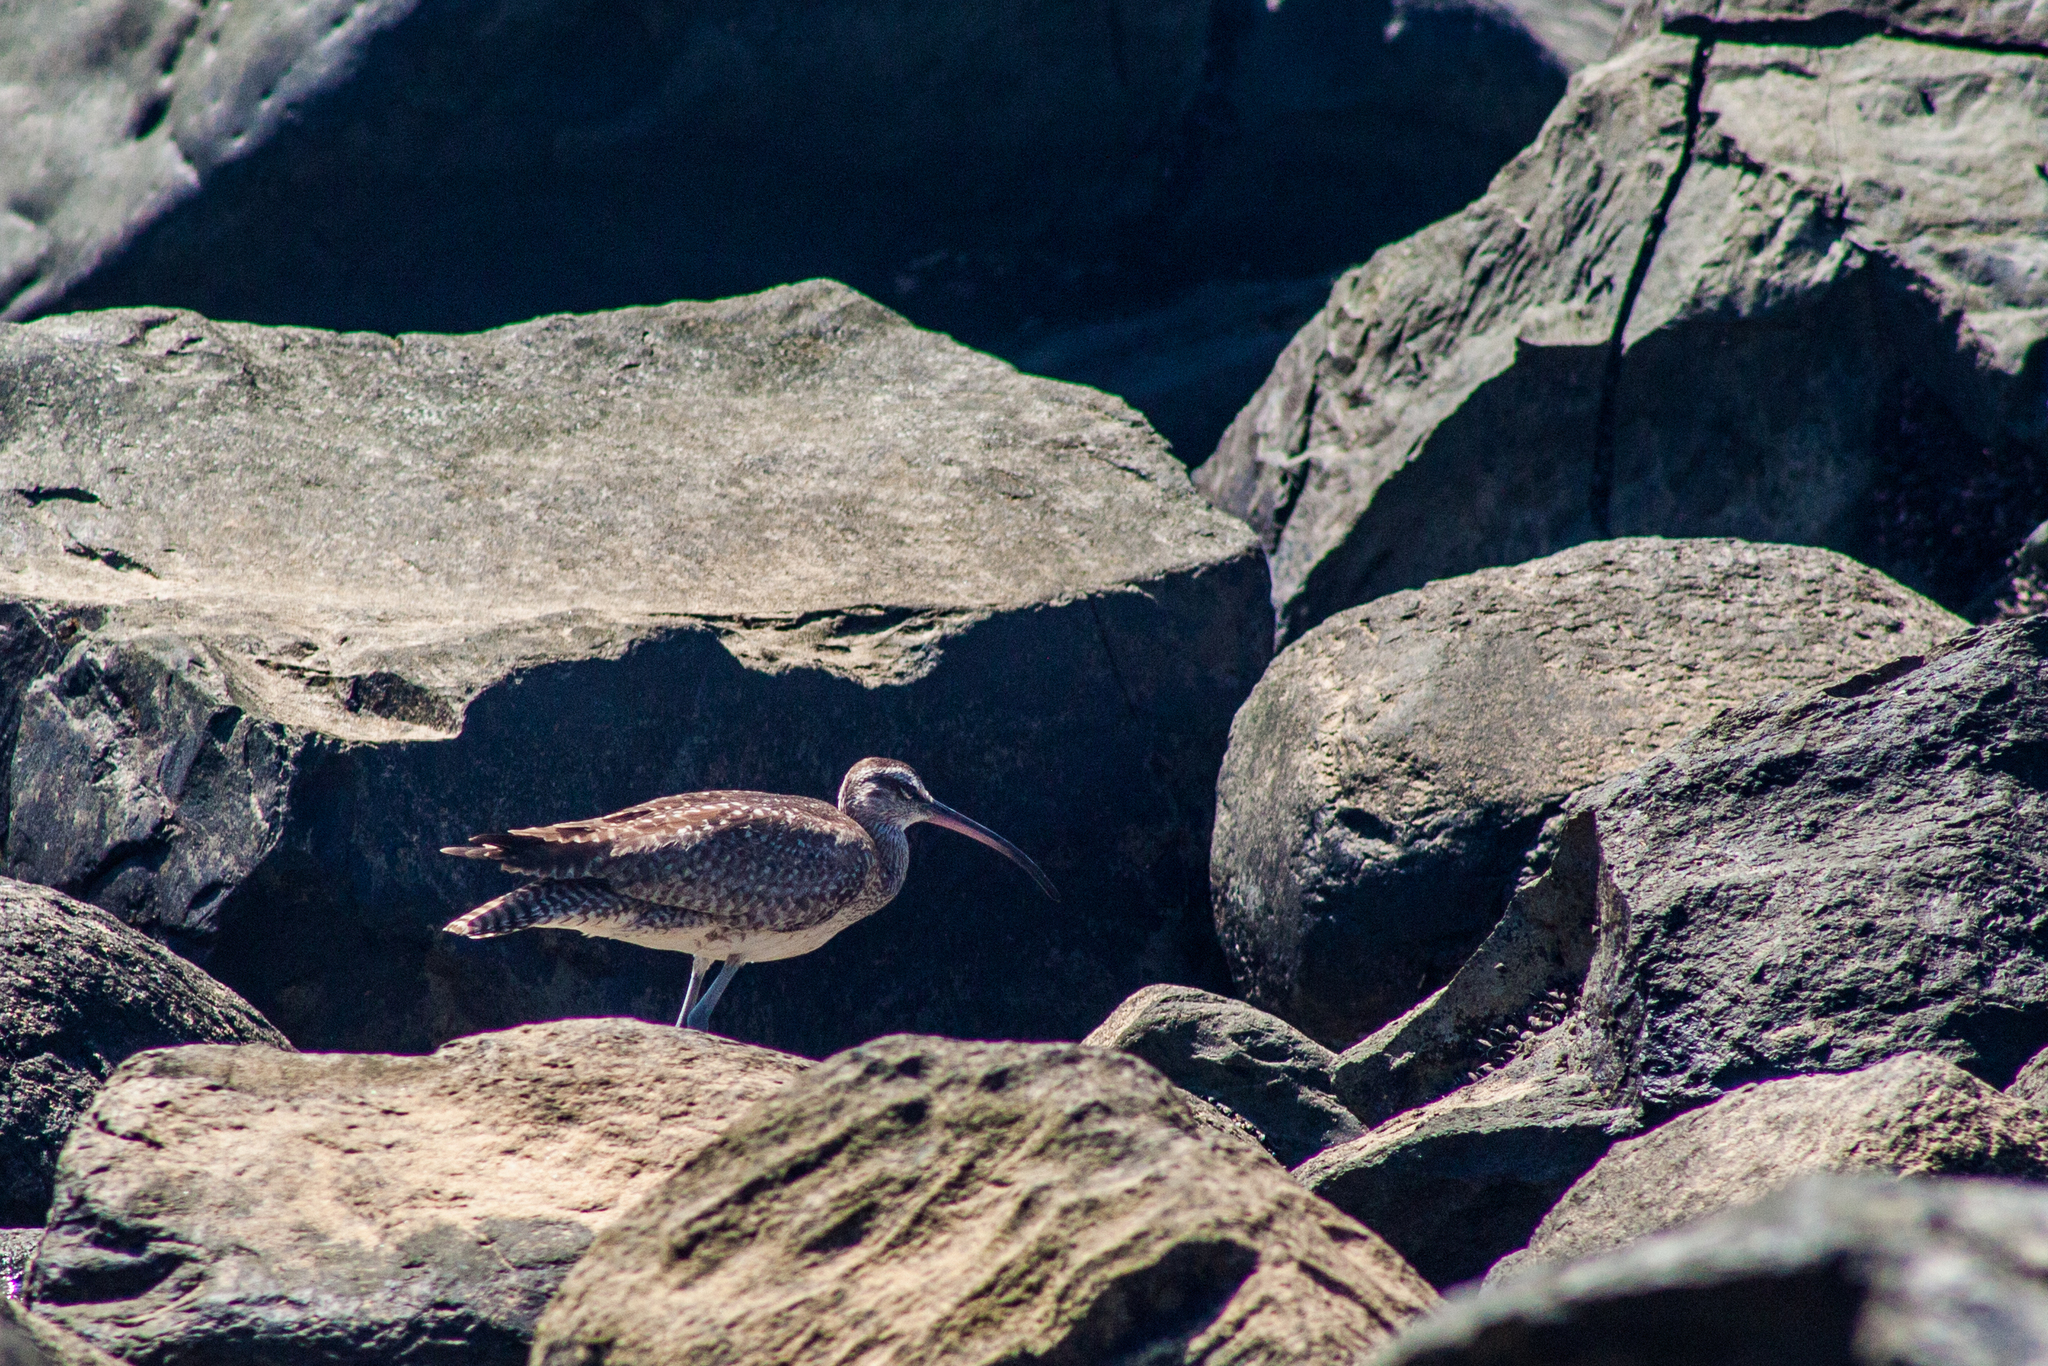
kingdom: Animalia
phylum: Chordata
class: Aves
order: Charadriiformes
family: Scolopacidae
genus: Numenius
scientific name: Numenius hudsonicus
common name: Hudsonian whimbrel
